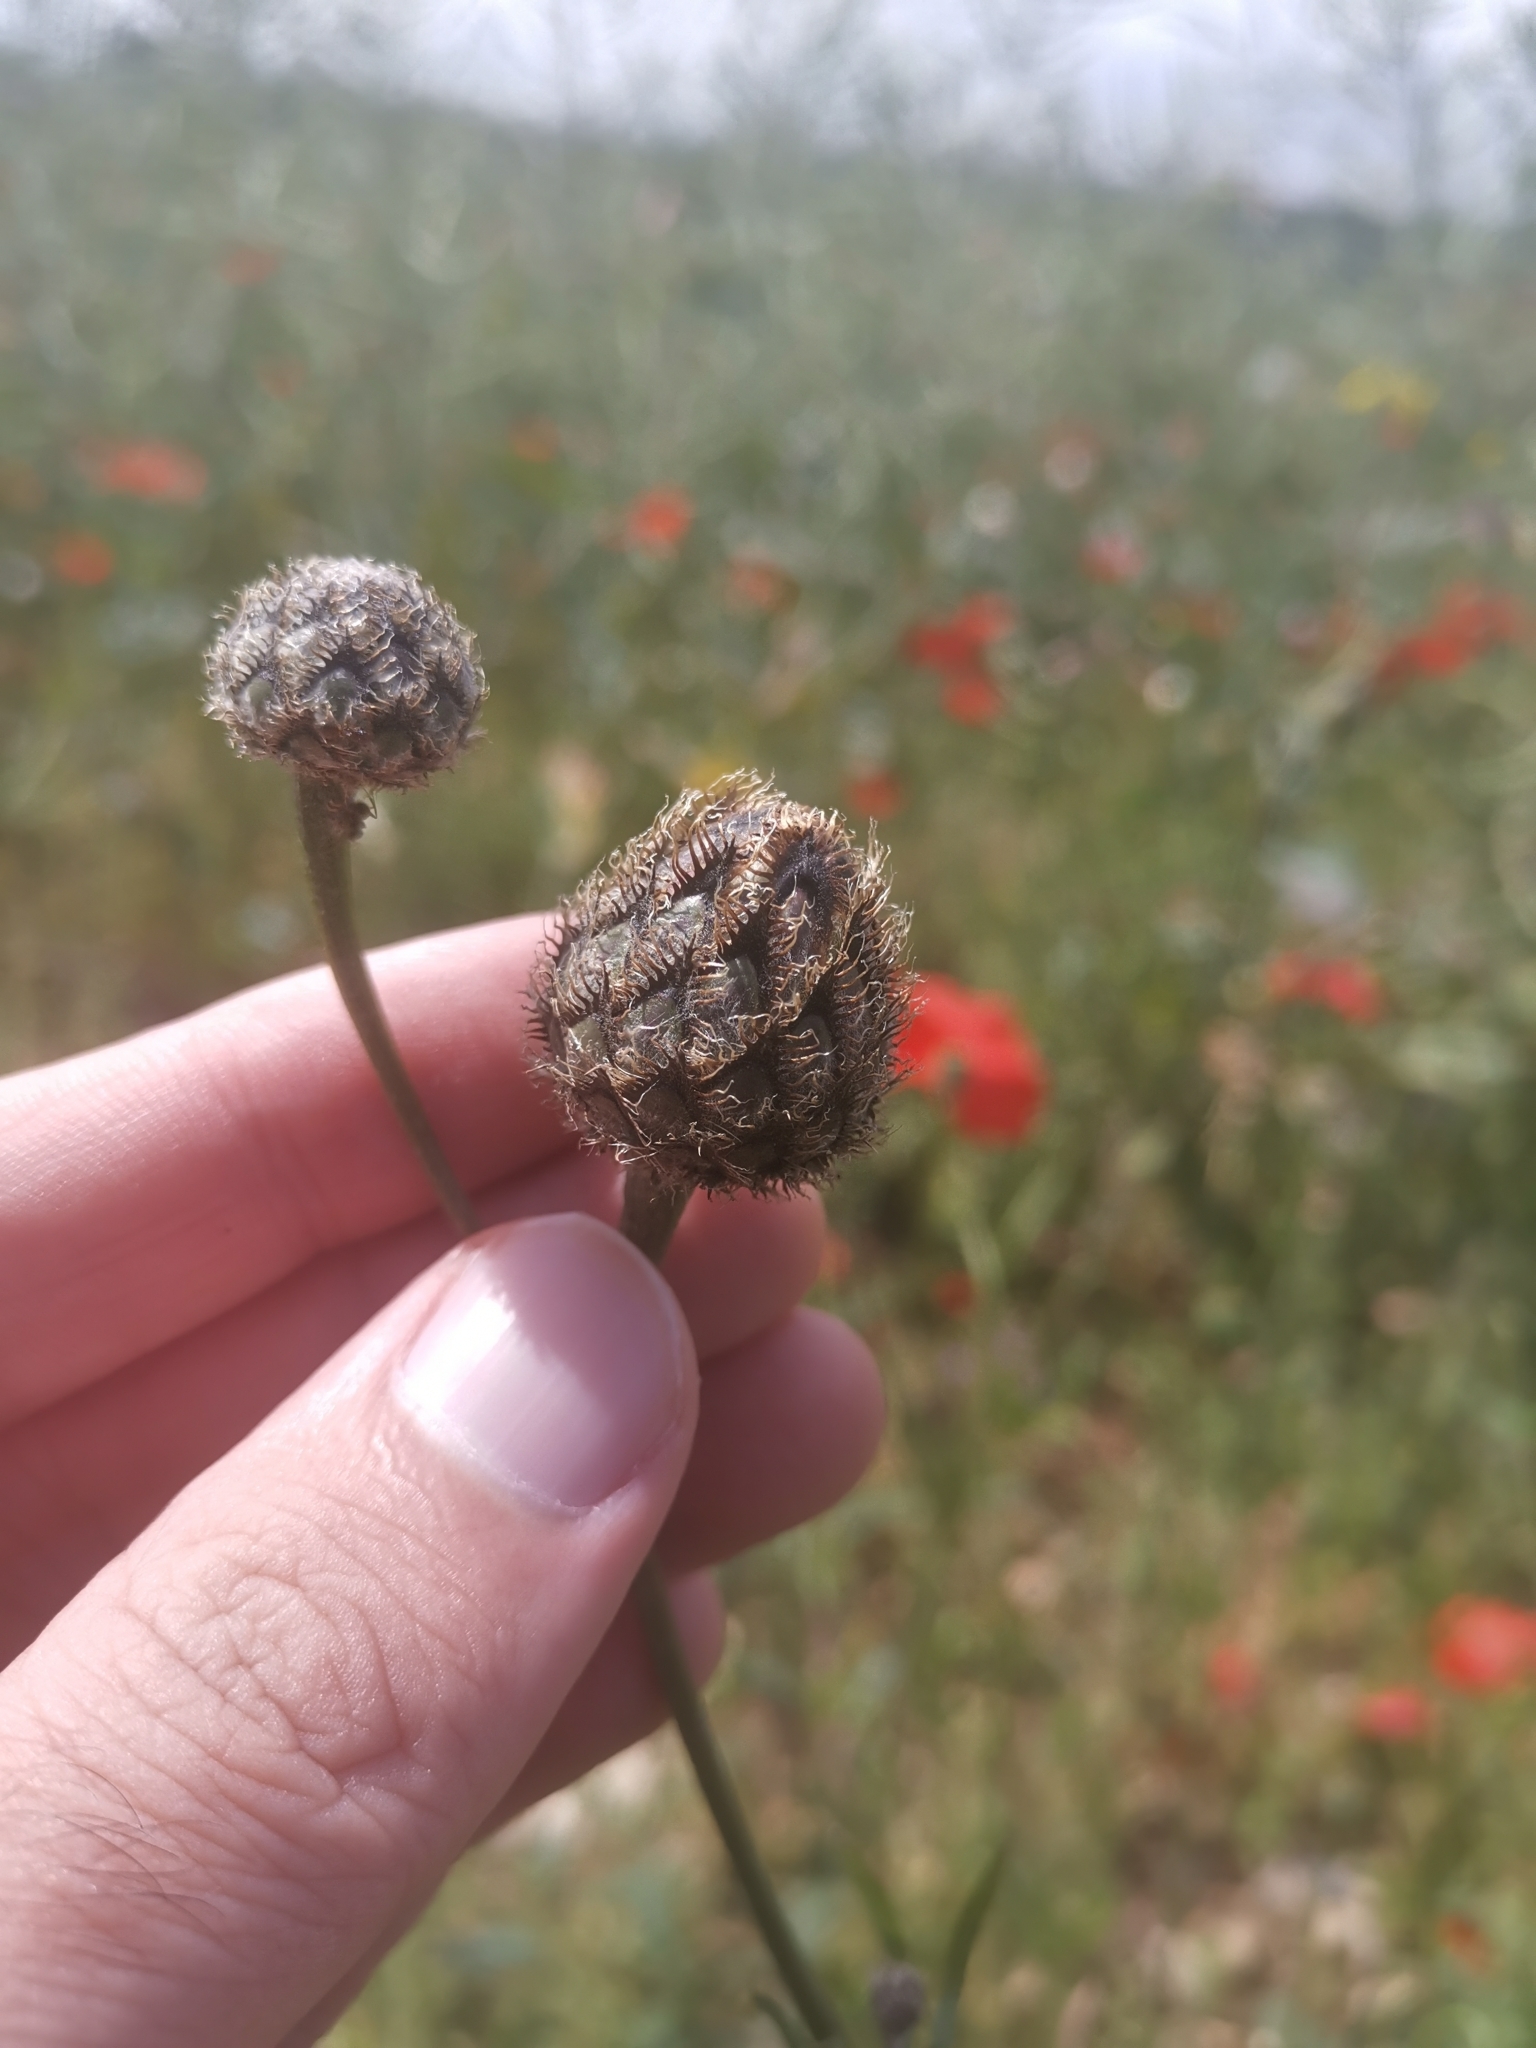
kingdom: Plantae
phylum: Tracheophyta
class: Magnoliopsida
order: Asterales
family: Asteraceae
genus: Centaurea
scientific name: Centaurea scabiosa
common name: Greater knapweed
